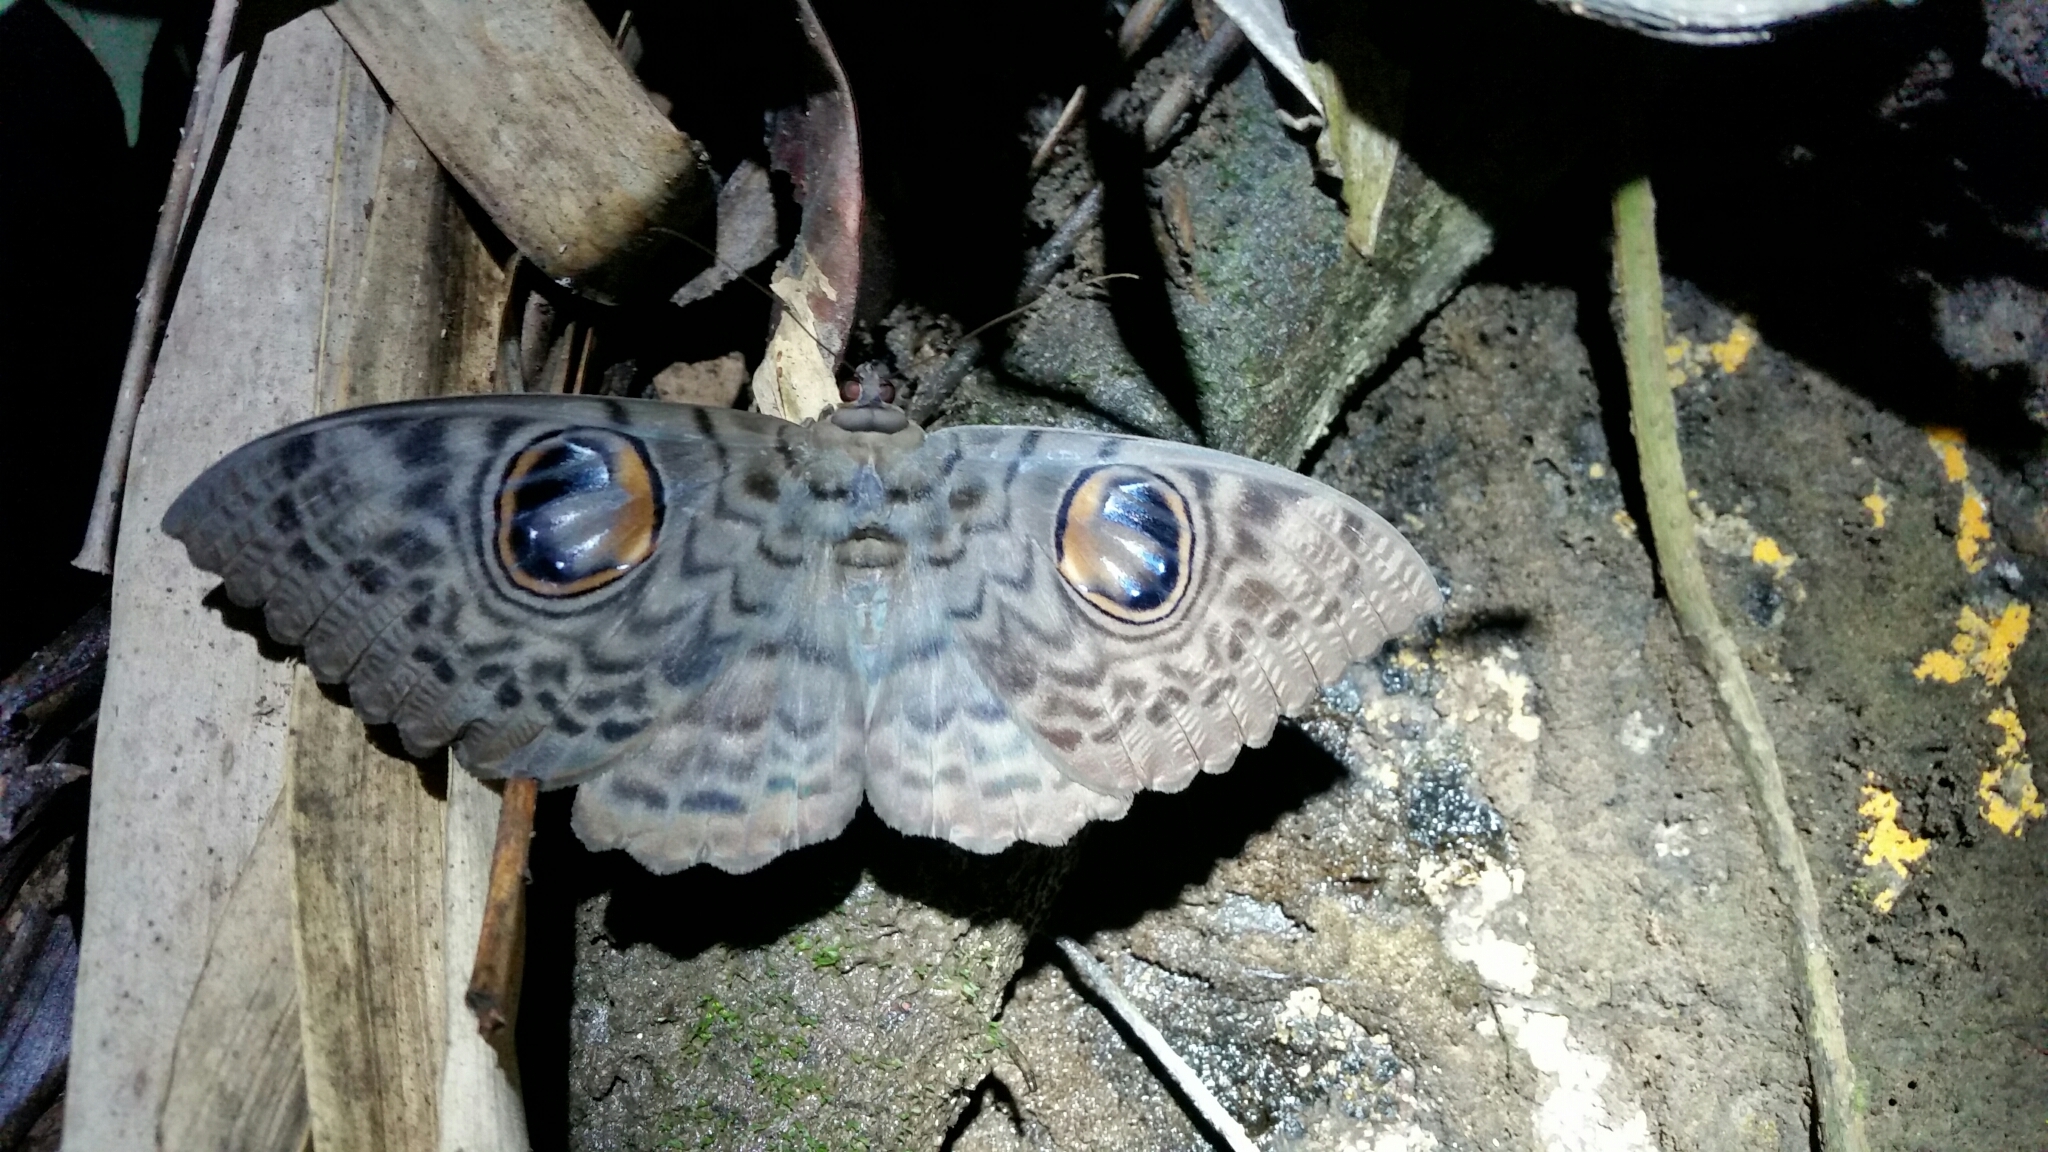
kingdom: Animalia
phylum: Arthropoda
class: Insecta
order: Lepidoptera
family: Erebidae
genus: Erebus
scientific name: Erebus macrops
